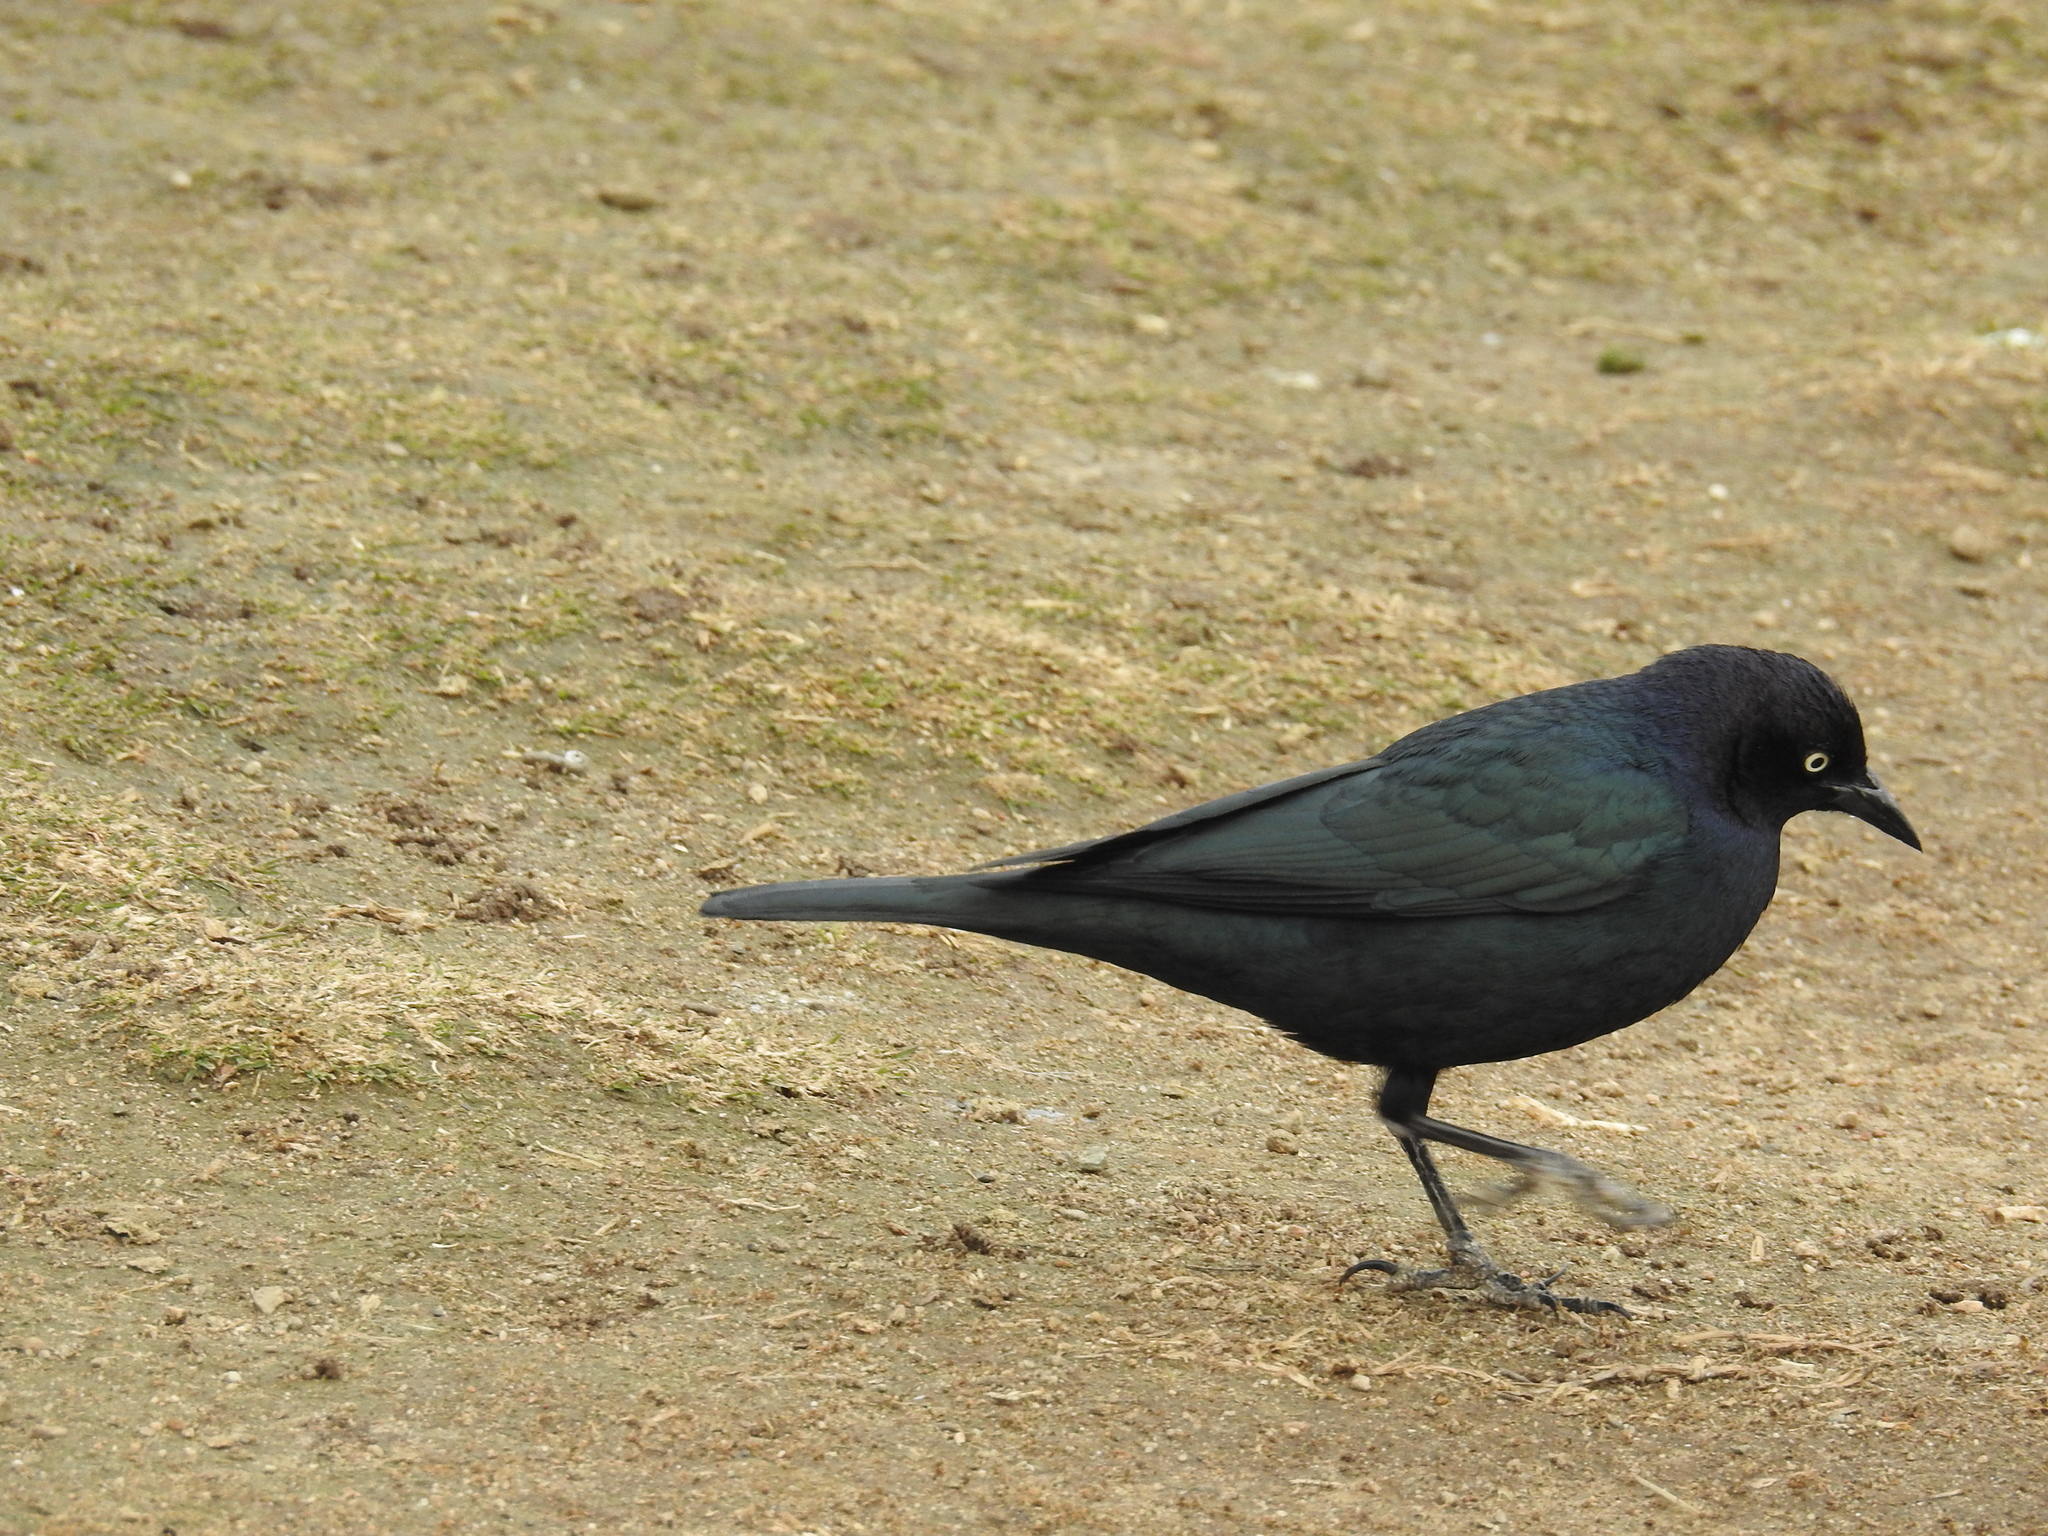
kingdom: Animalia
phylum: Chordata
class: Aves
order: Passeriformes
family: Icteridae
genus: Euphagus
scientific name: Euphagus cyanocephalus
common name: Brewer's blackbird
